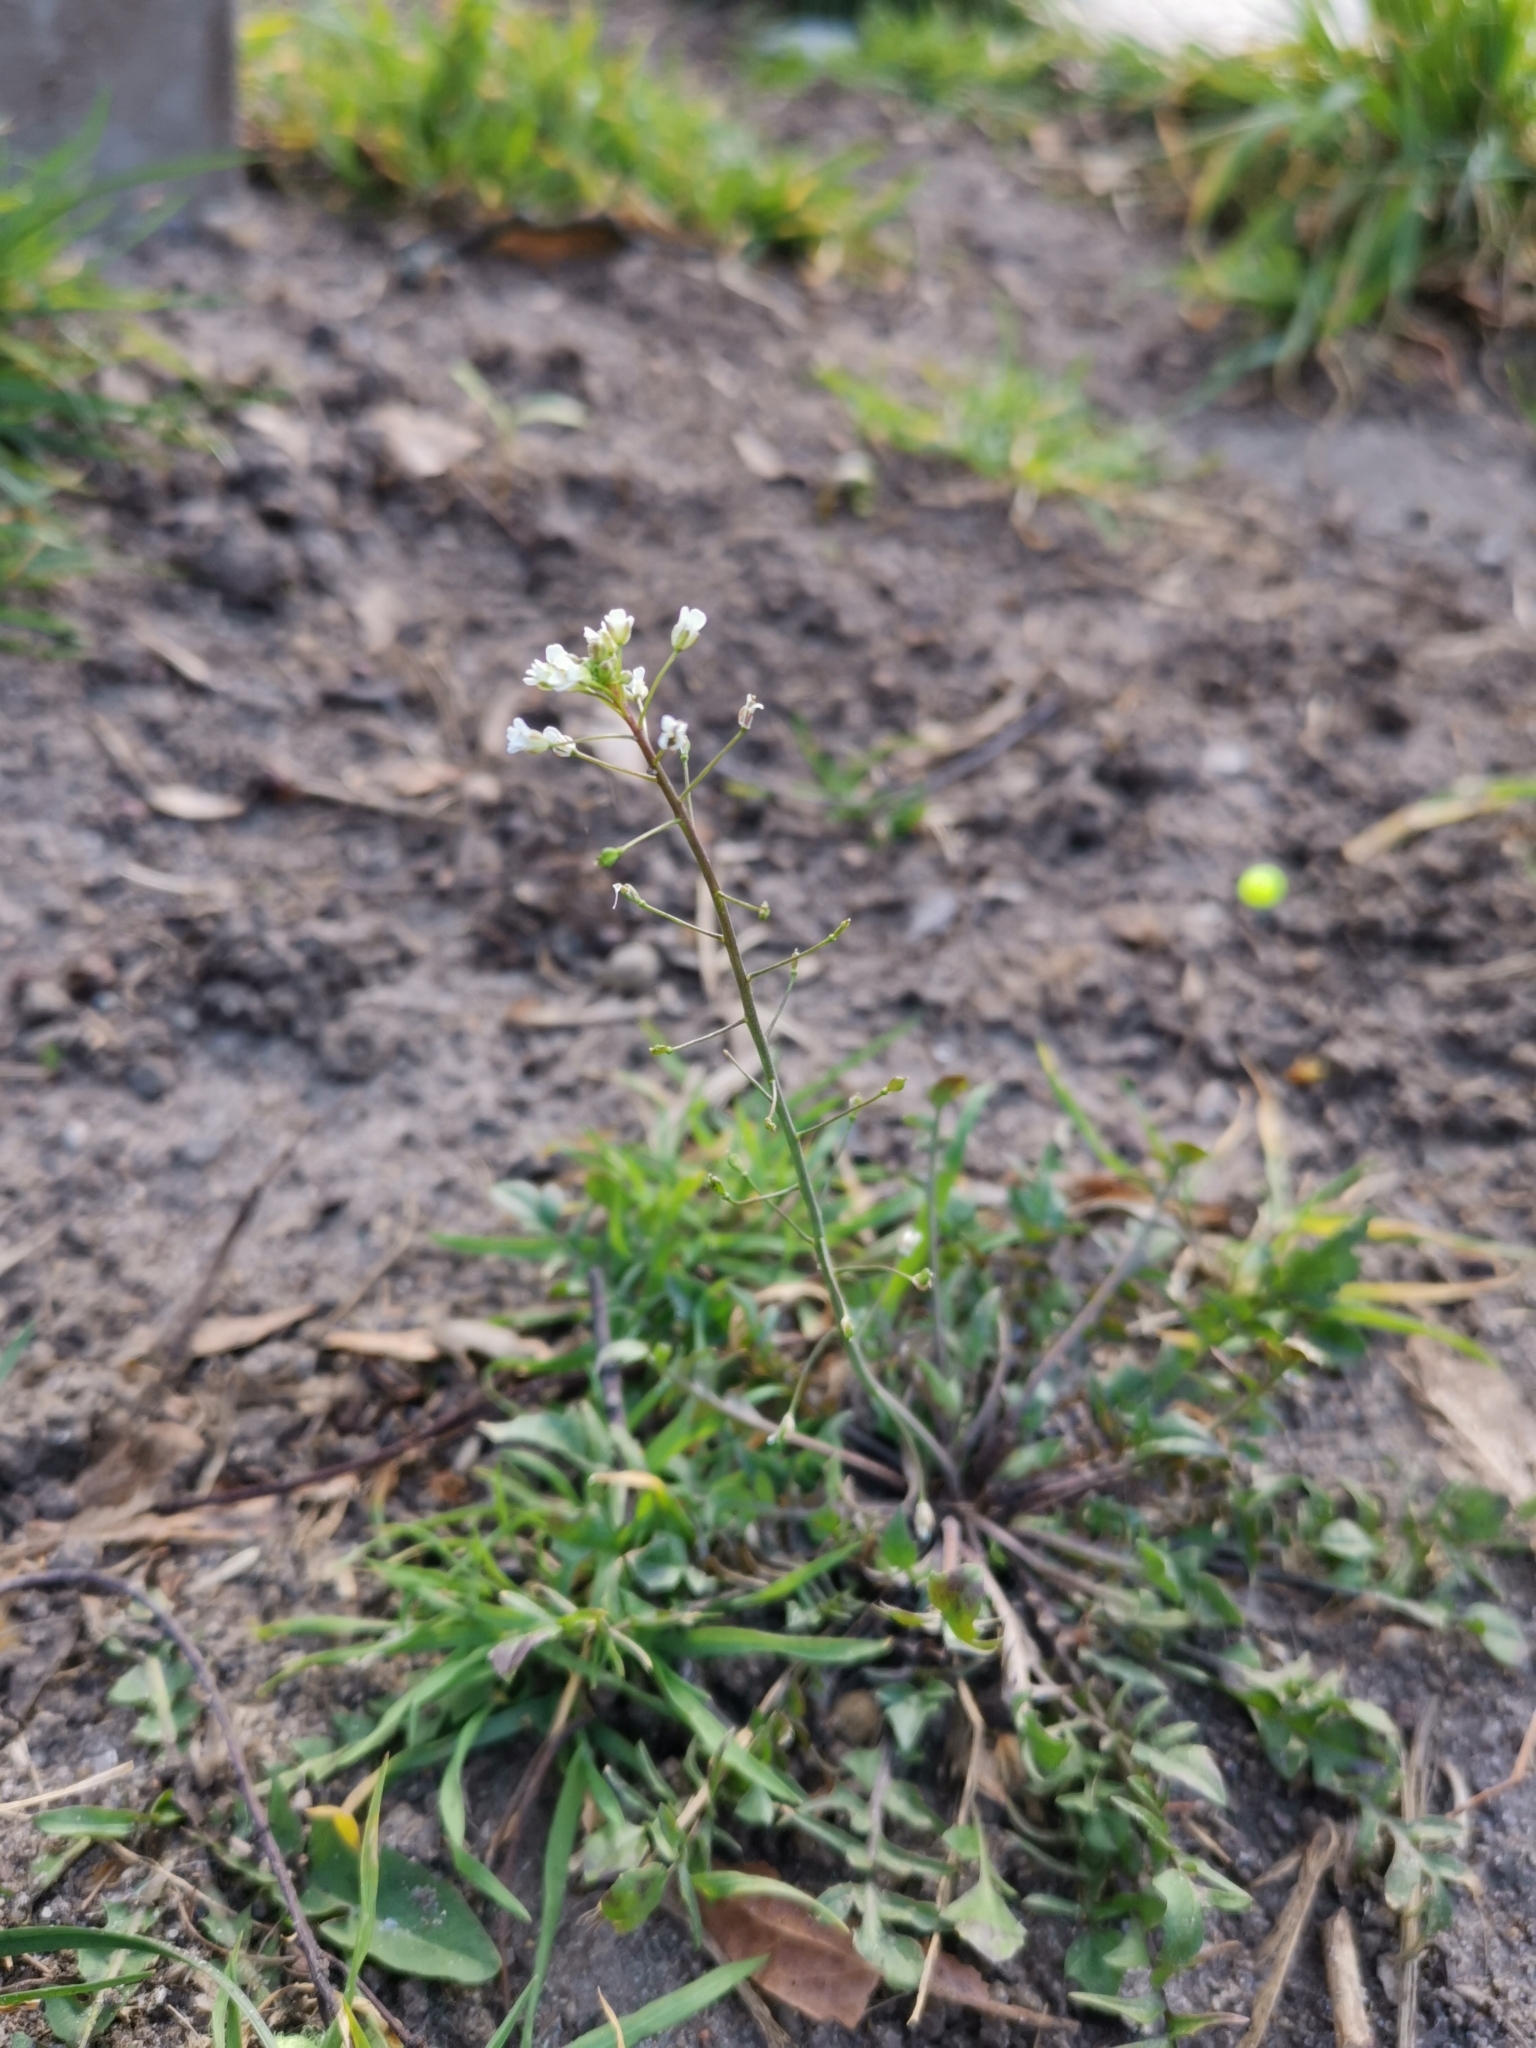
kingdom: Plantae
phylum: Tracheophyta
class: Magnoliopsida
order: Brassicales
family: Brassicaceae
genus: Capsella
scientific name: Capsella bursa-pastoris
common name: Shepherd's purse
